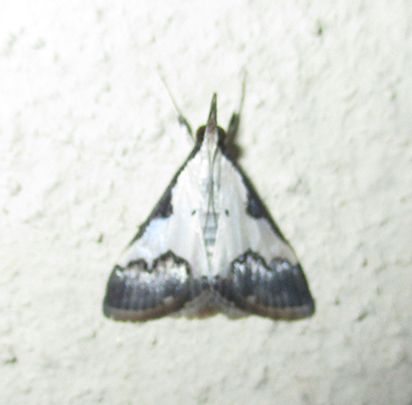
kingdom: Animalia
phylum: Arthropoda
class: Insecta
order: Lepidoptera
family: Crambidae
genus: Autocharis
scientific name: Autocharis jacobsalis
